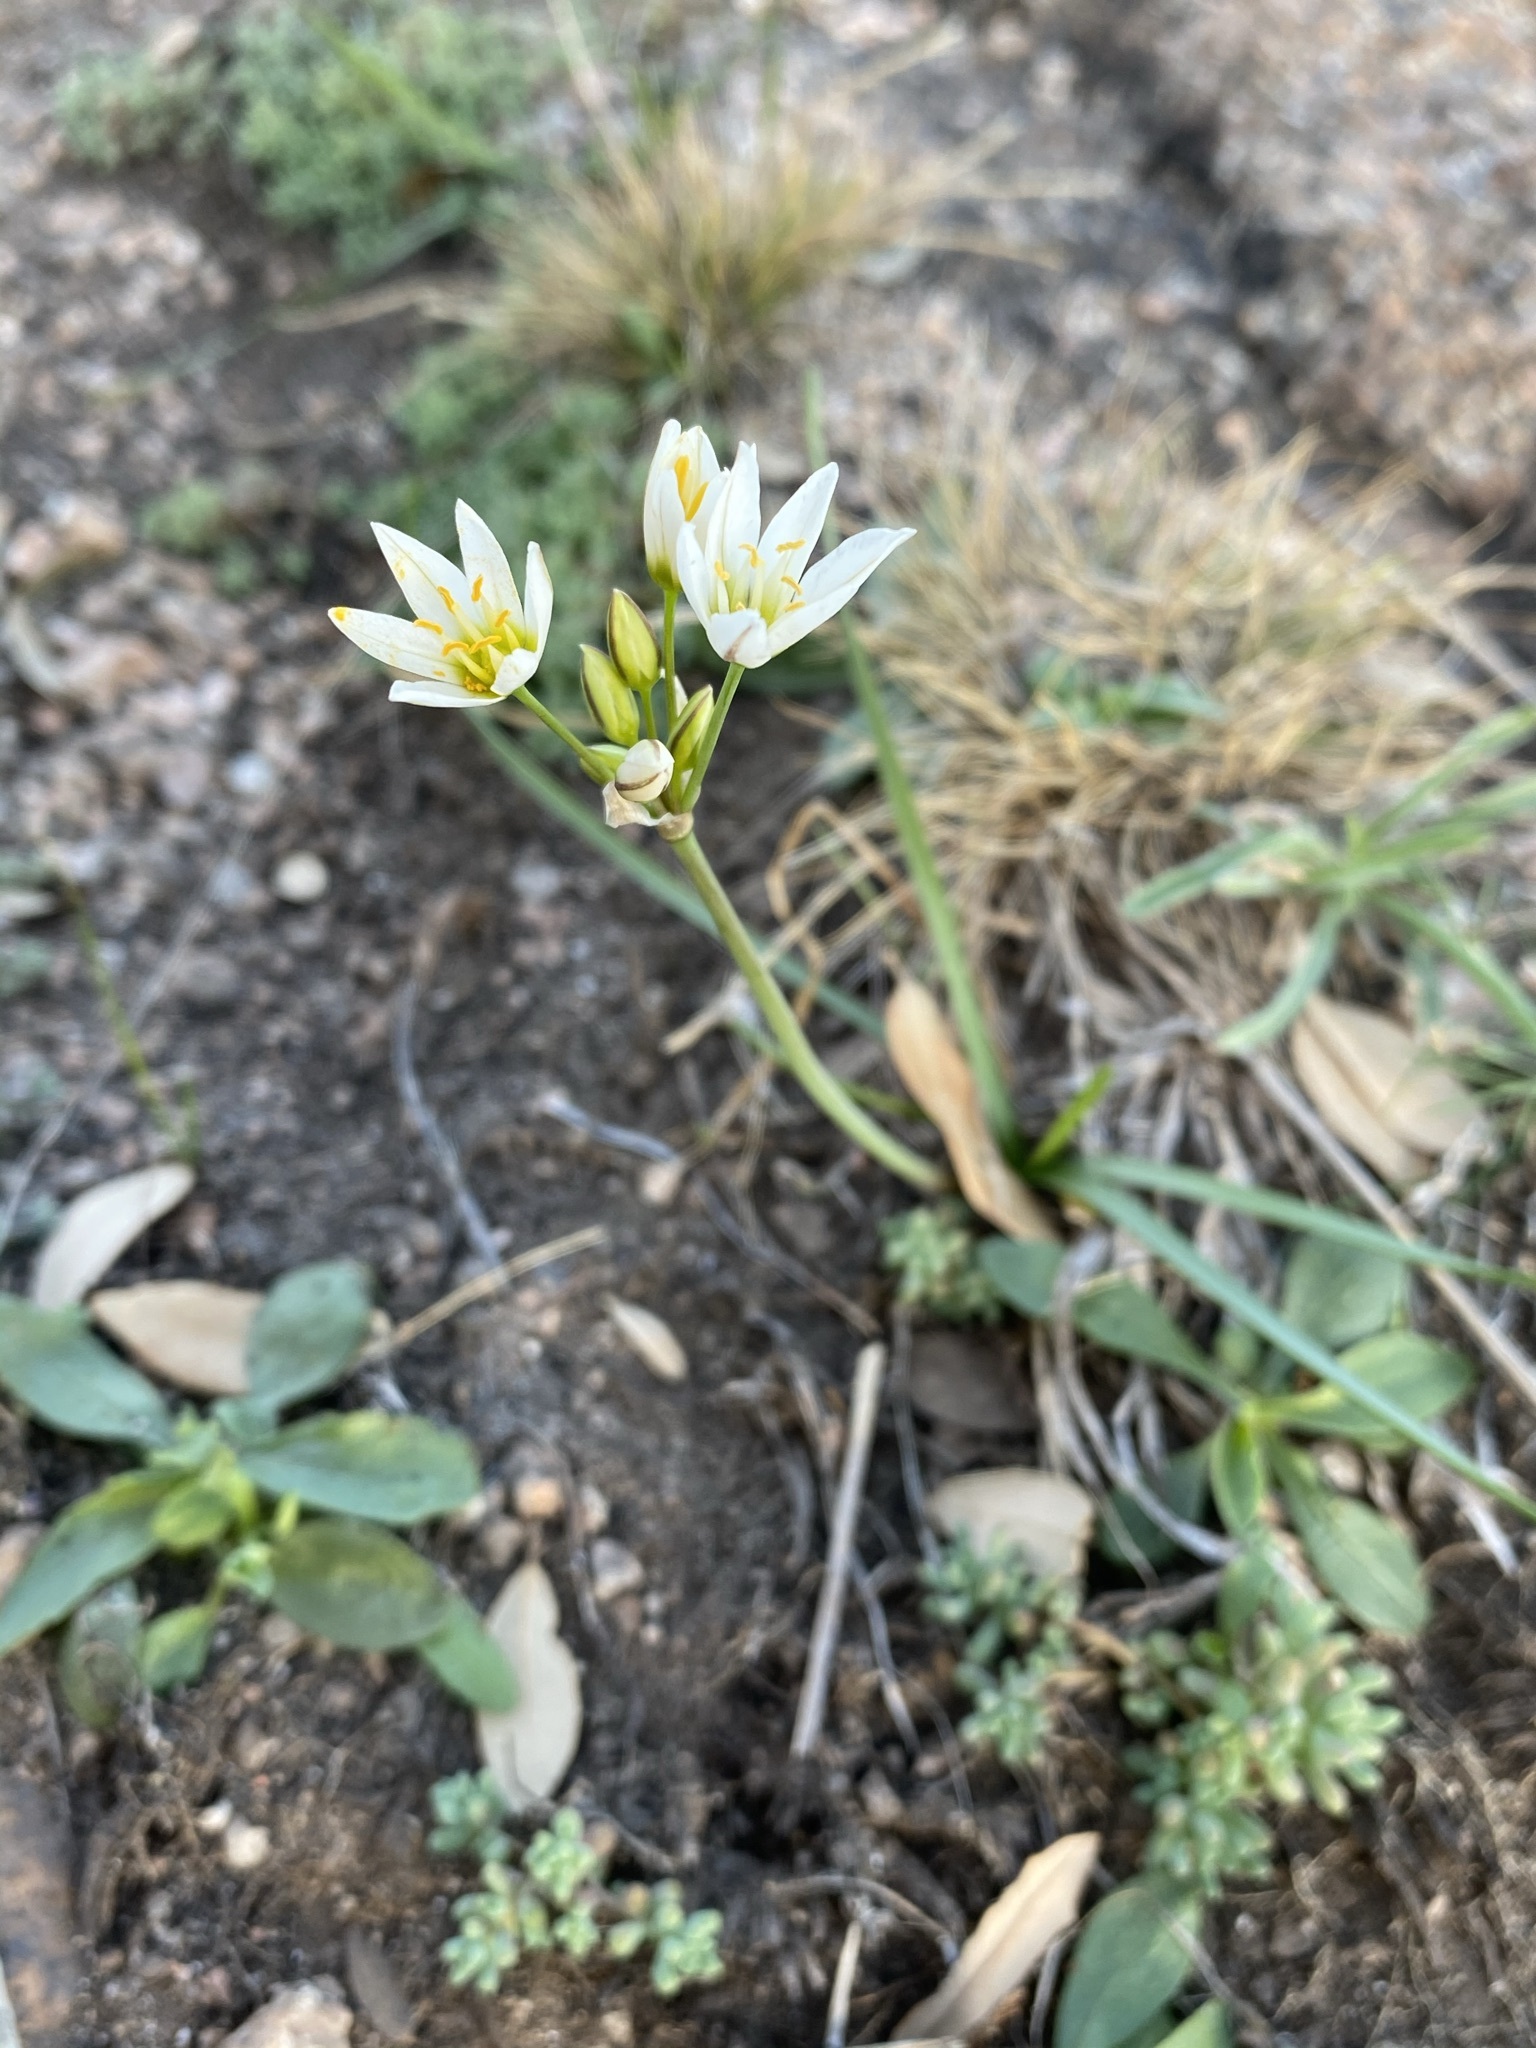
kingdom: Plantae
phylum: Tracheophyta
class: Liliopsida
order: Asparagales
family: Amaryllidaceae
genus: Nothoscordum
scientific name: Nothoscordum bivalve
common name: Crow-poison
